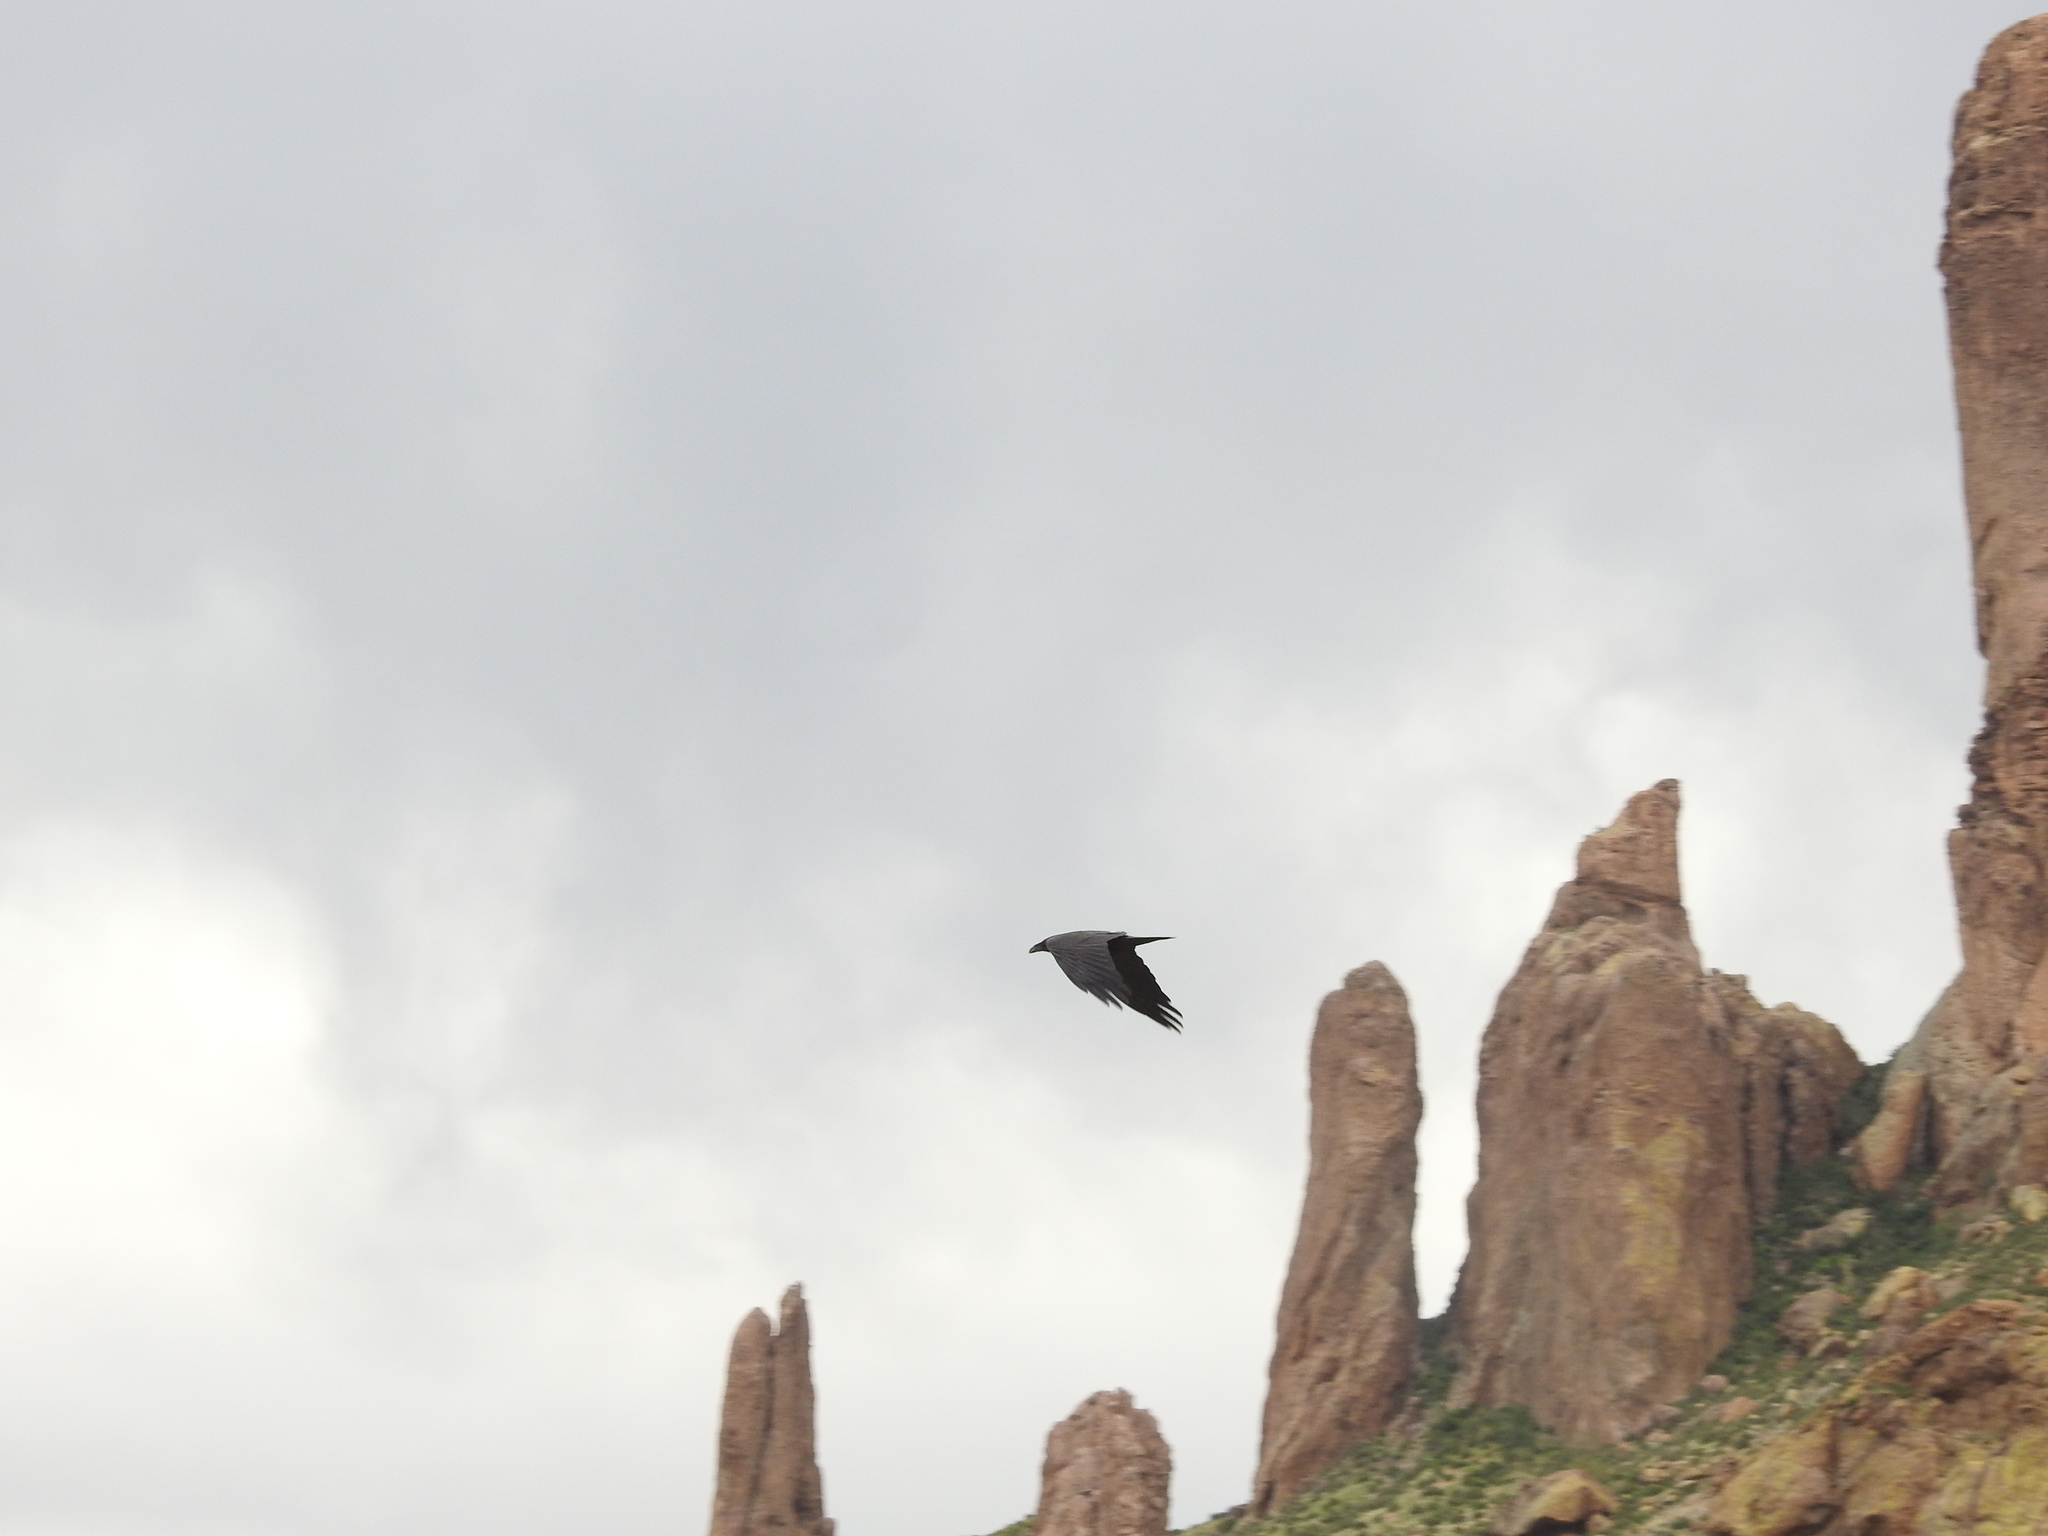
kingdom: Animalia
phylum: Chordata
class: Aves
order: Passeriformes
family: Corvidae
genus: Corvus
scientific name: Corvus corax
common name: Common raven
